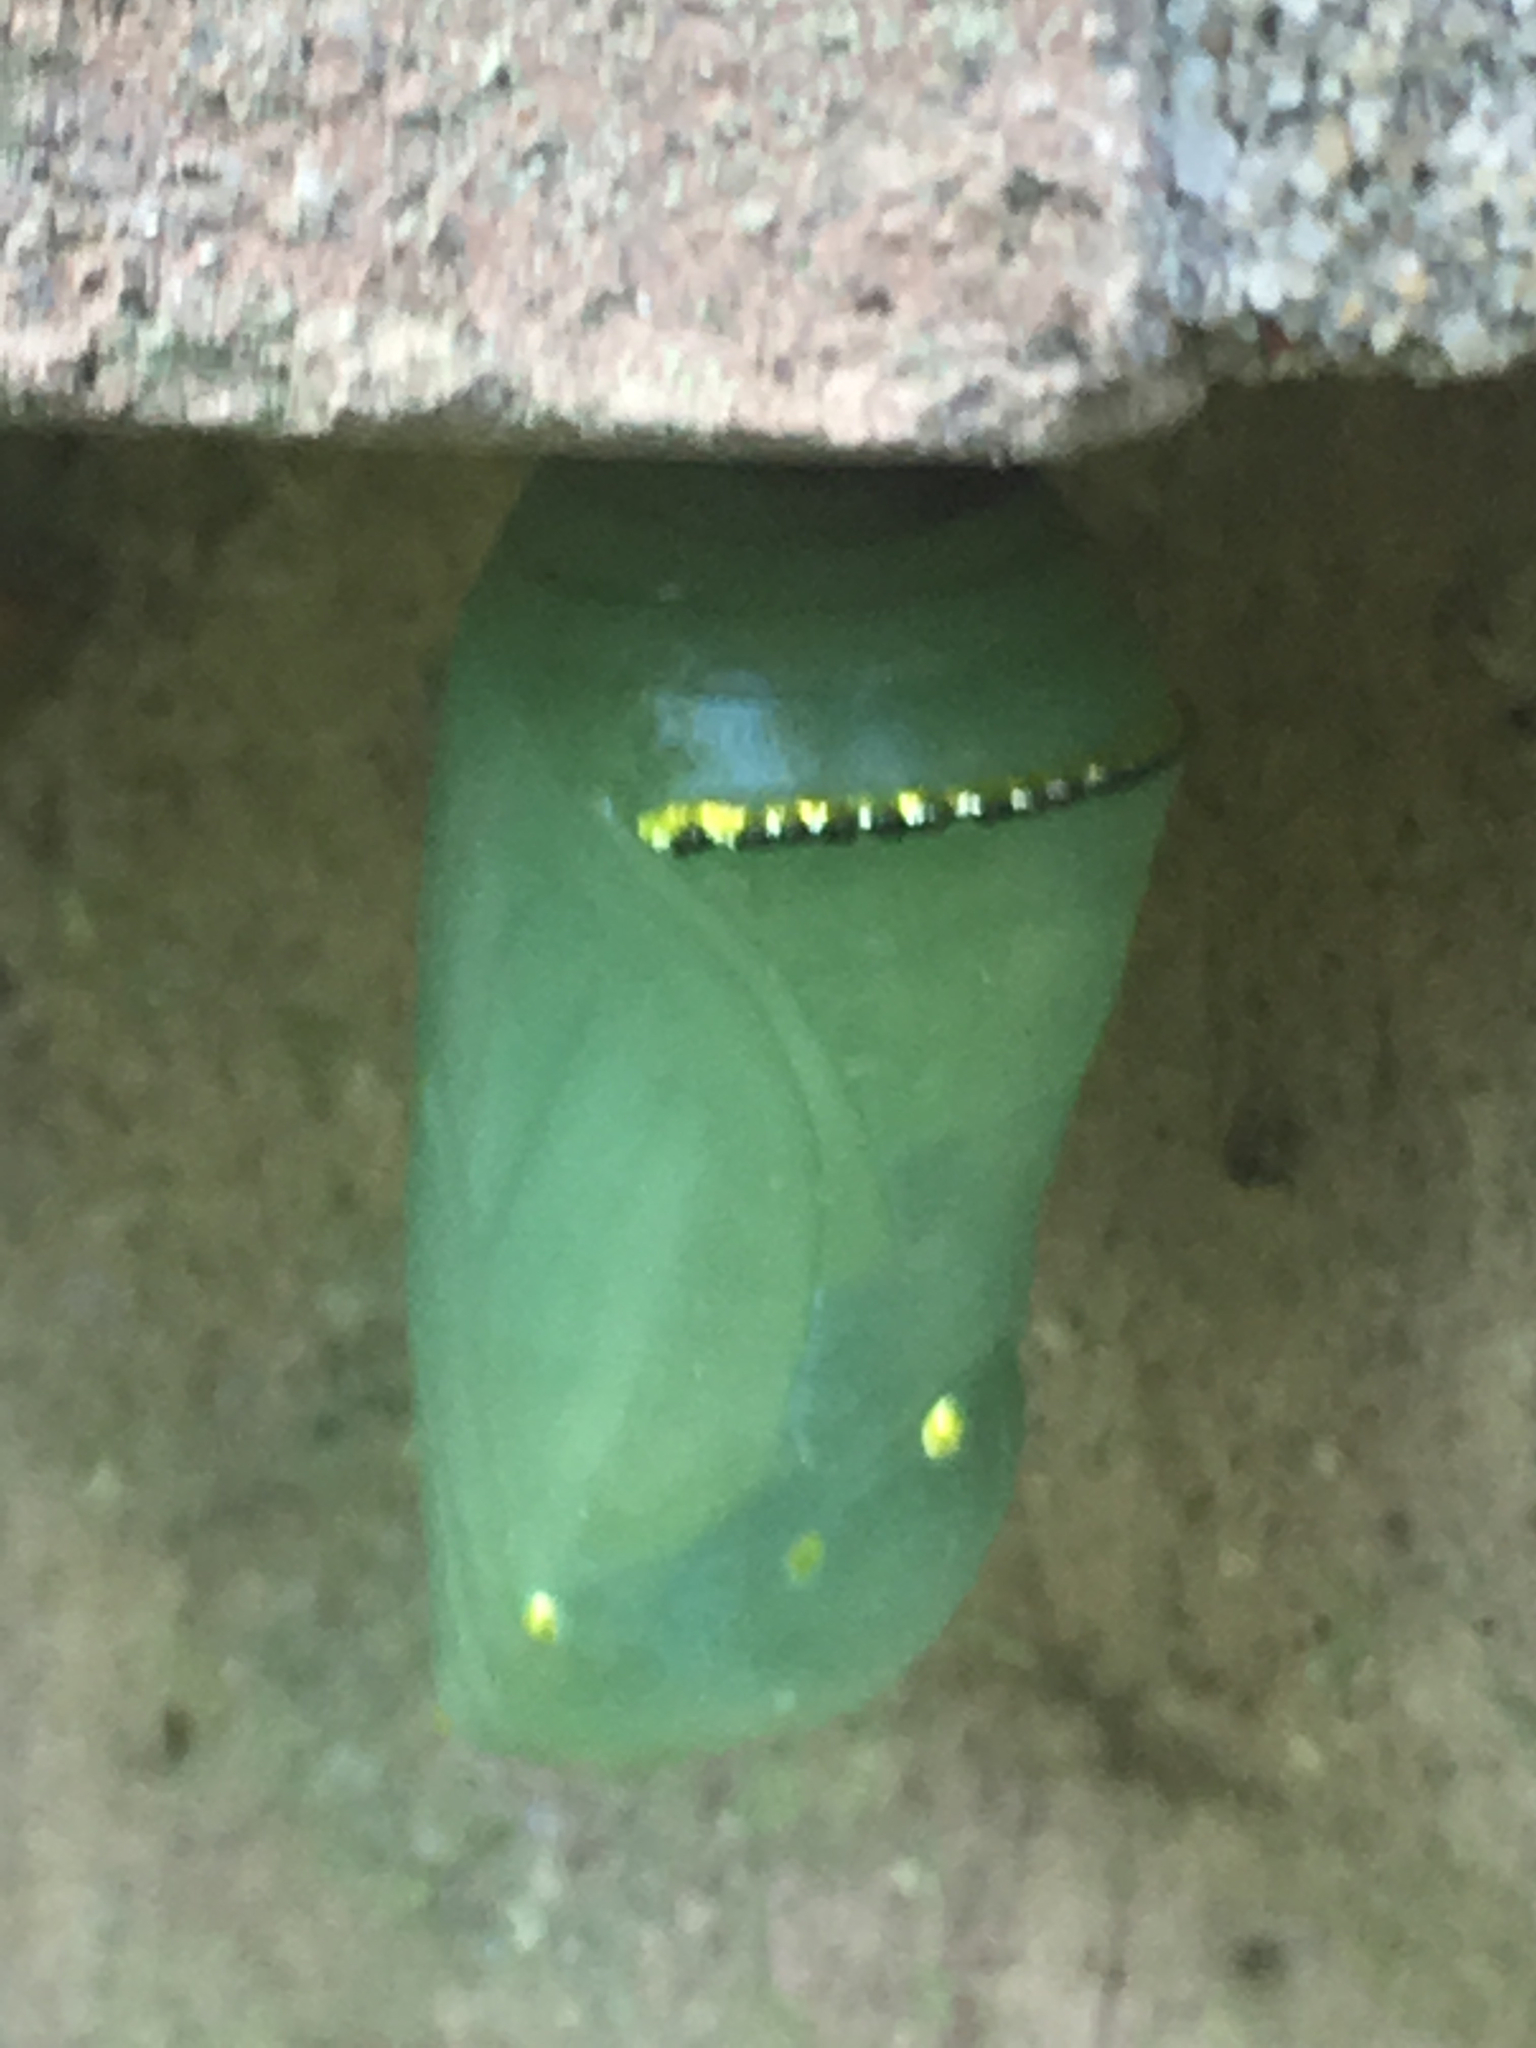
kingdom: Animalia
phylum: Arthropoda
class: Insecta
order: Lepidoptera
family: Nymphalidae
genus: Danaus
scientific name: Danaus plexippus
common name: Monarch
